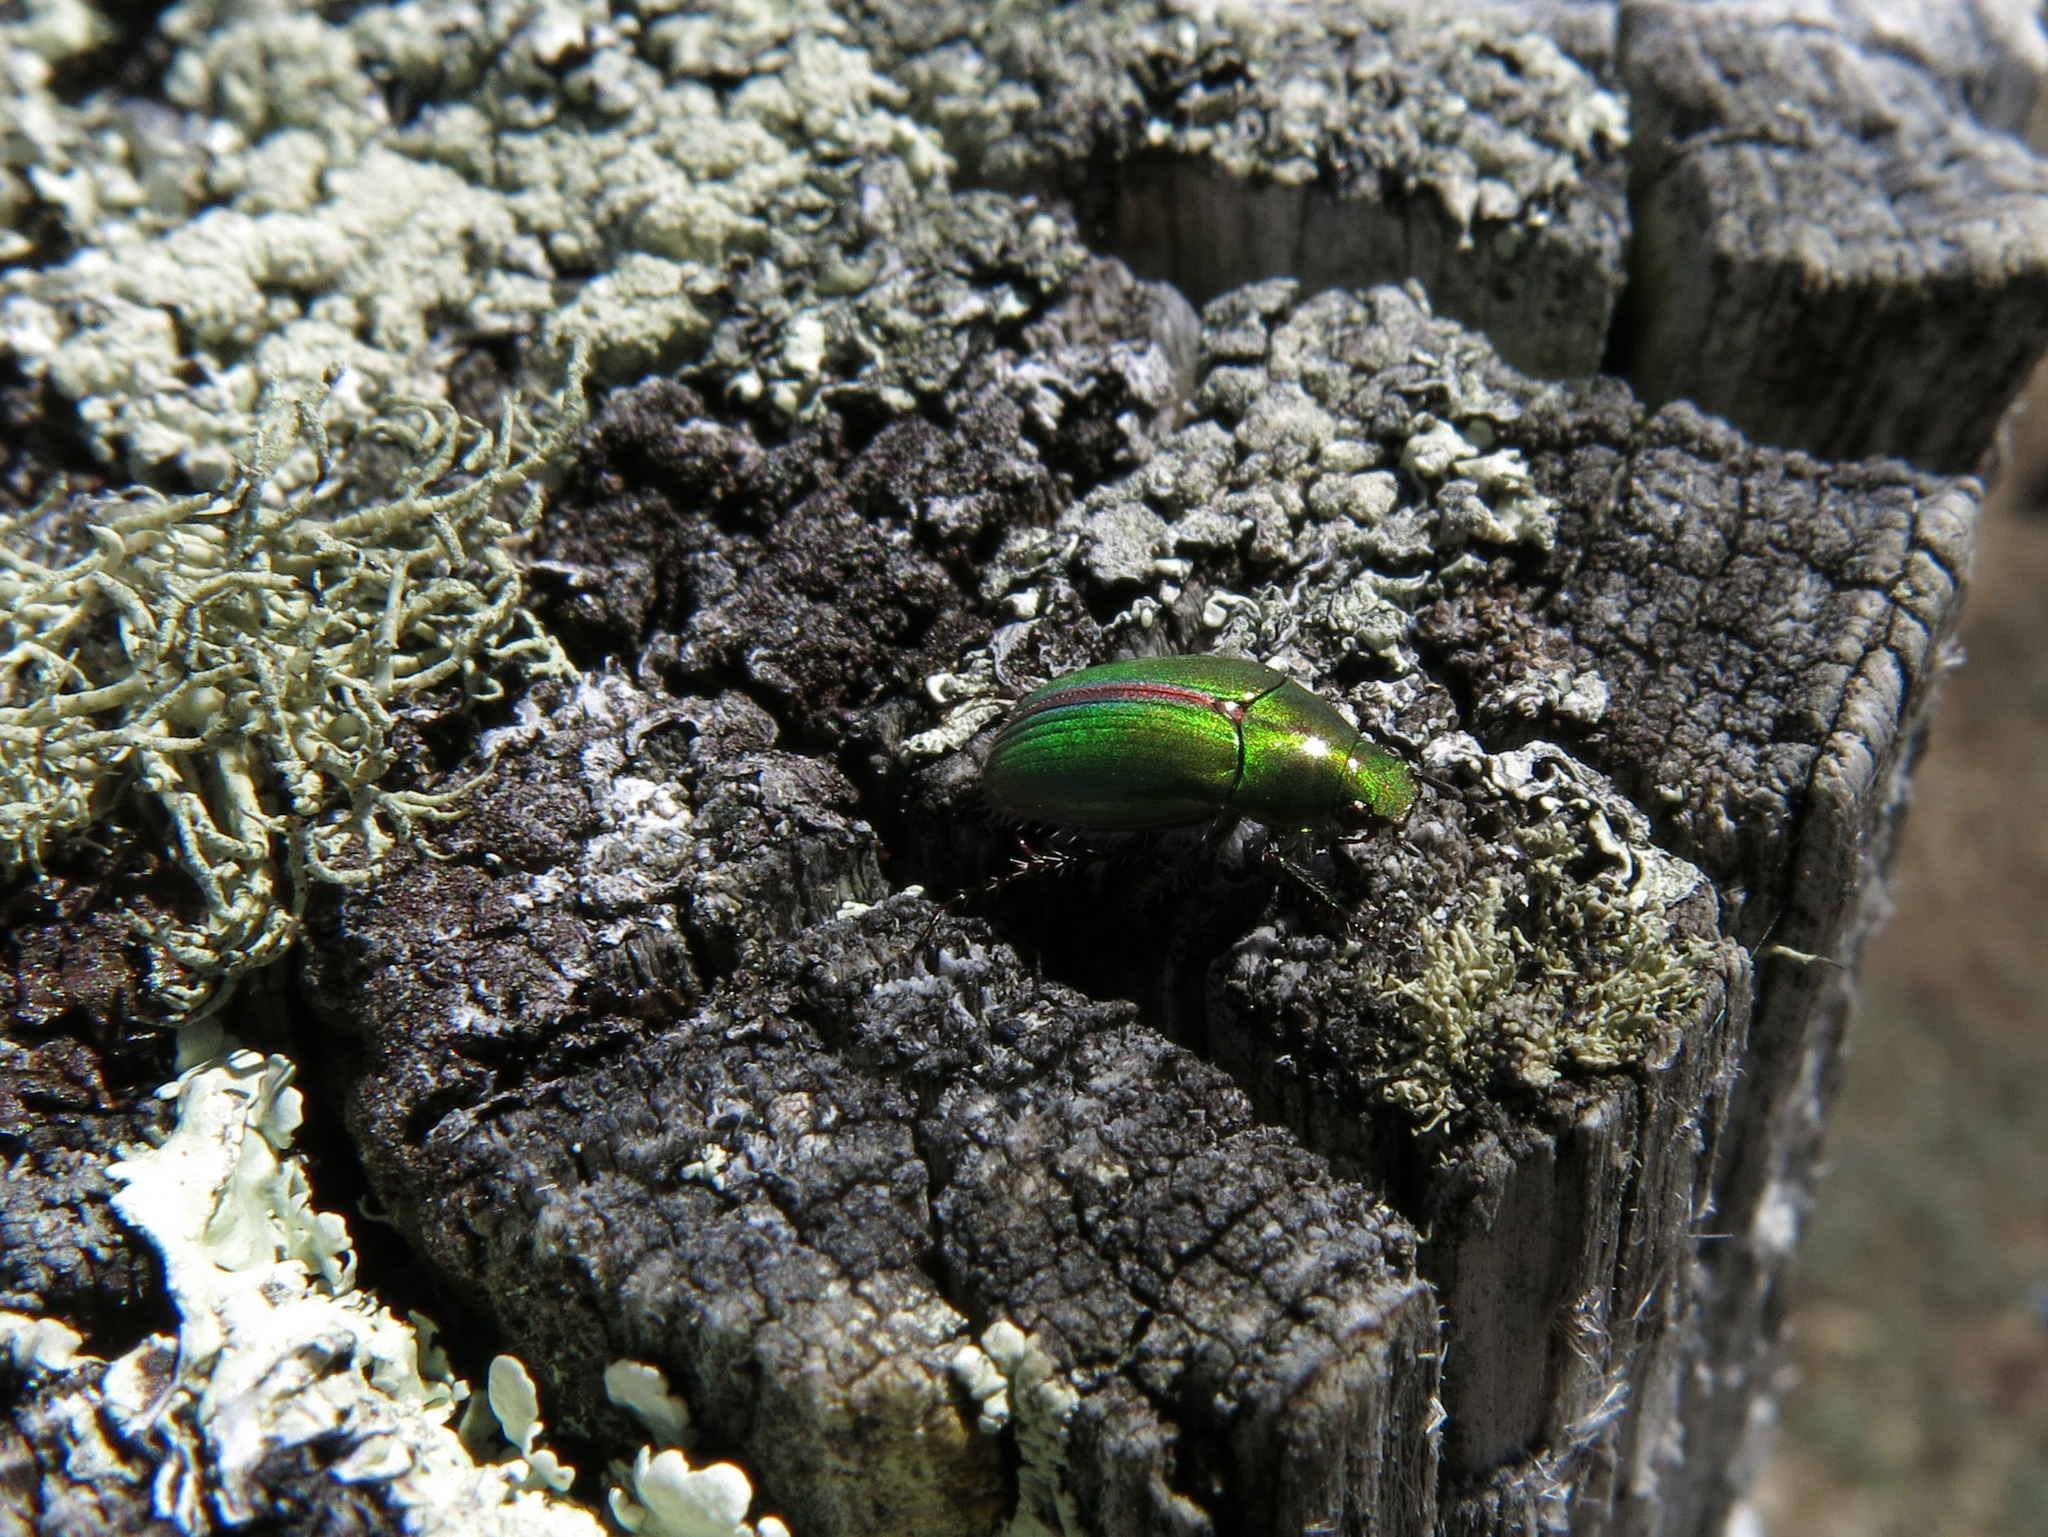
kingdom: Animalia
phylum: Arthropoda
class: Insecta
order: Coleoptera
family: Scarabaeidae
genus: Pyronota
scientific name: Pyronota festiva
